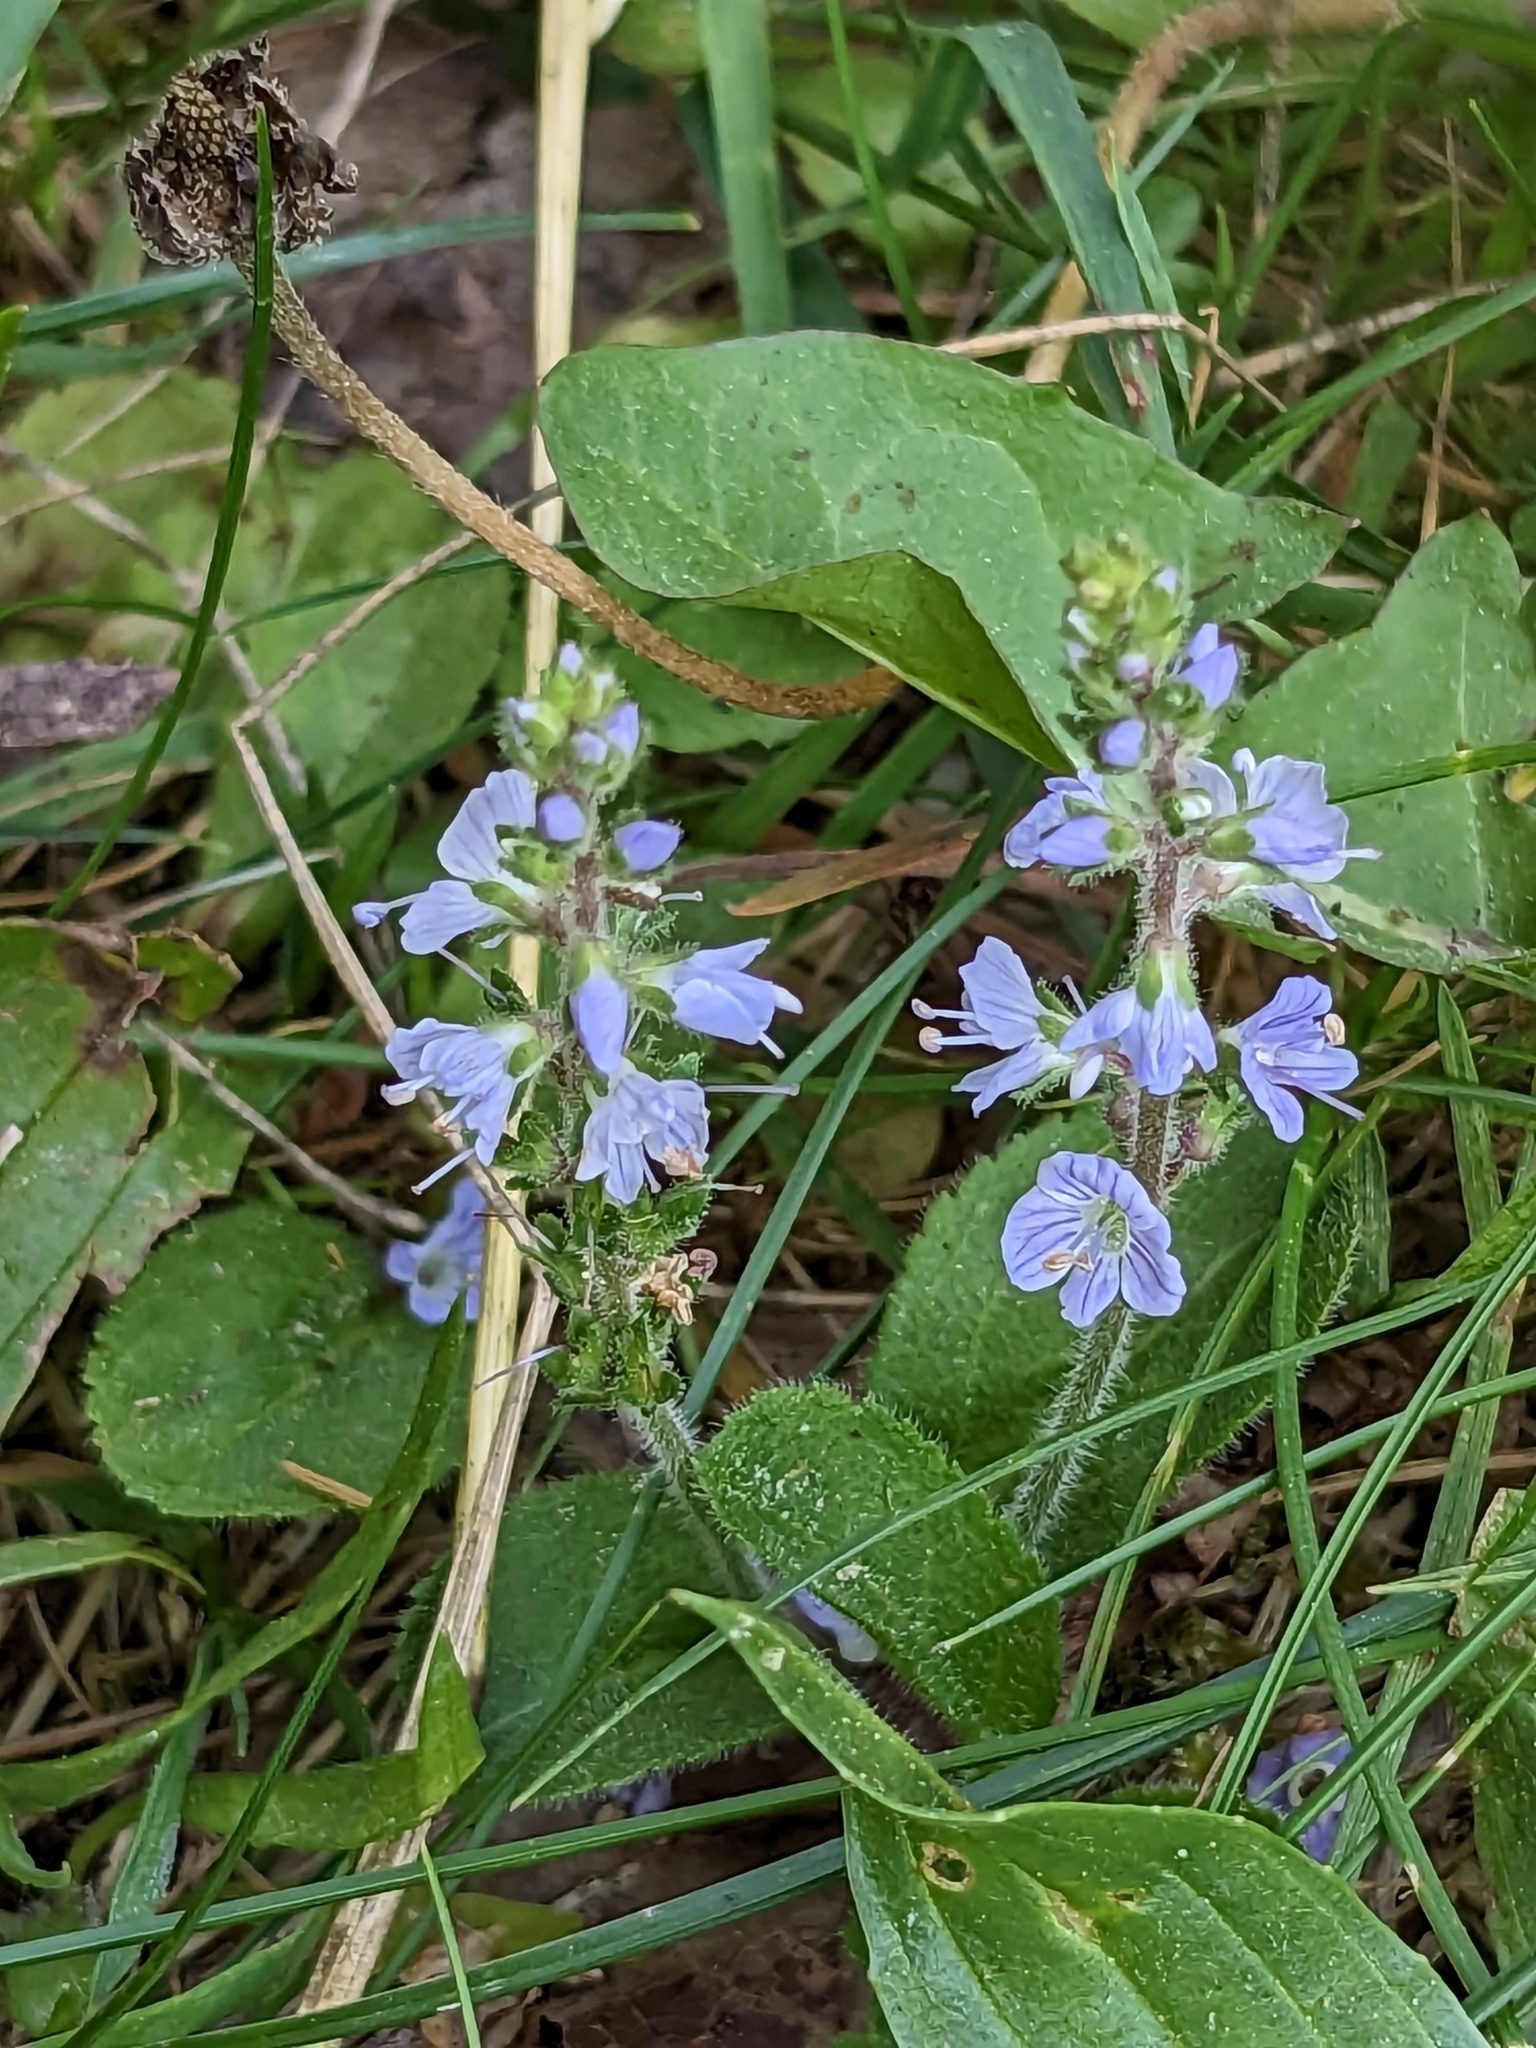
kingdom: Plantae
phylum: Tracheophyta
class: Magnoliopsida
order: Lamiales
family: Plantaginaceae
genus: Veronica
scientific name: Veronica officinalis
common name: Common speedwell
